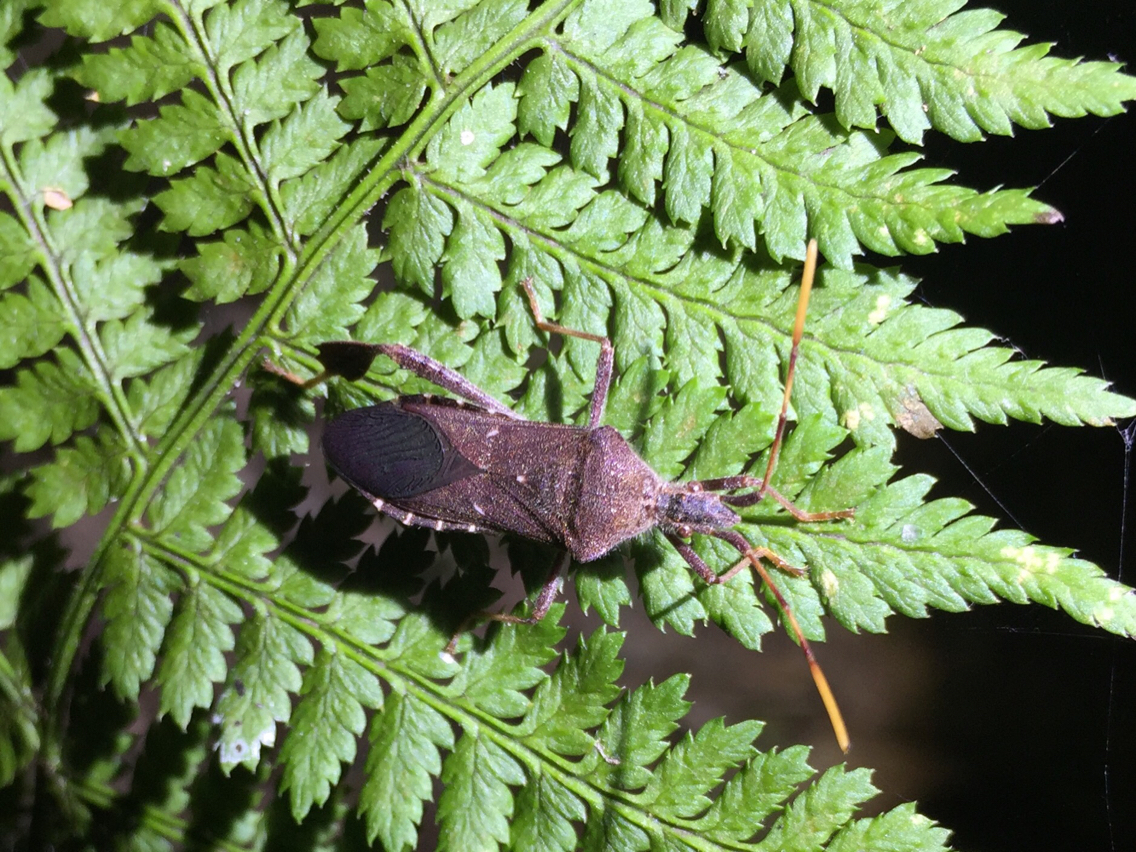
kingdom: Animalia
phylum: Arthropoda
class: Insecta
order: Hemiptera
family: Coreidae
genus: Leptoglossus
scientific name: Leptoglossus oppositus
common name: Northern leaf-footed bug
